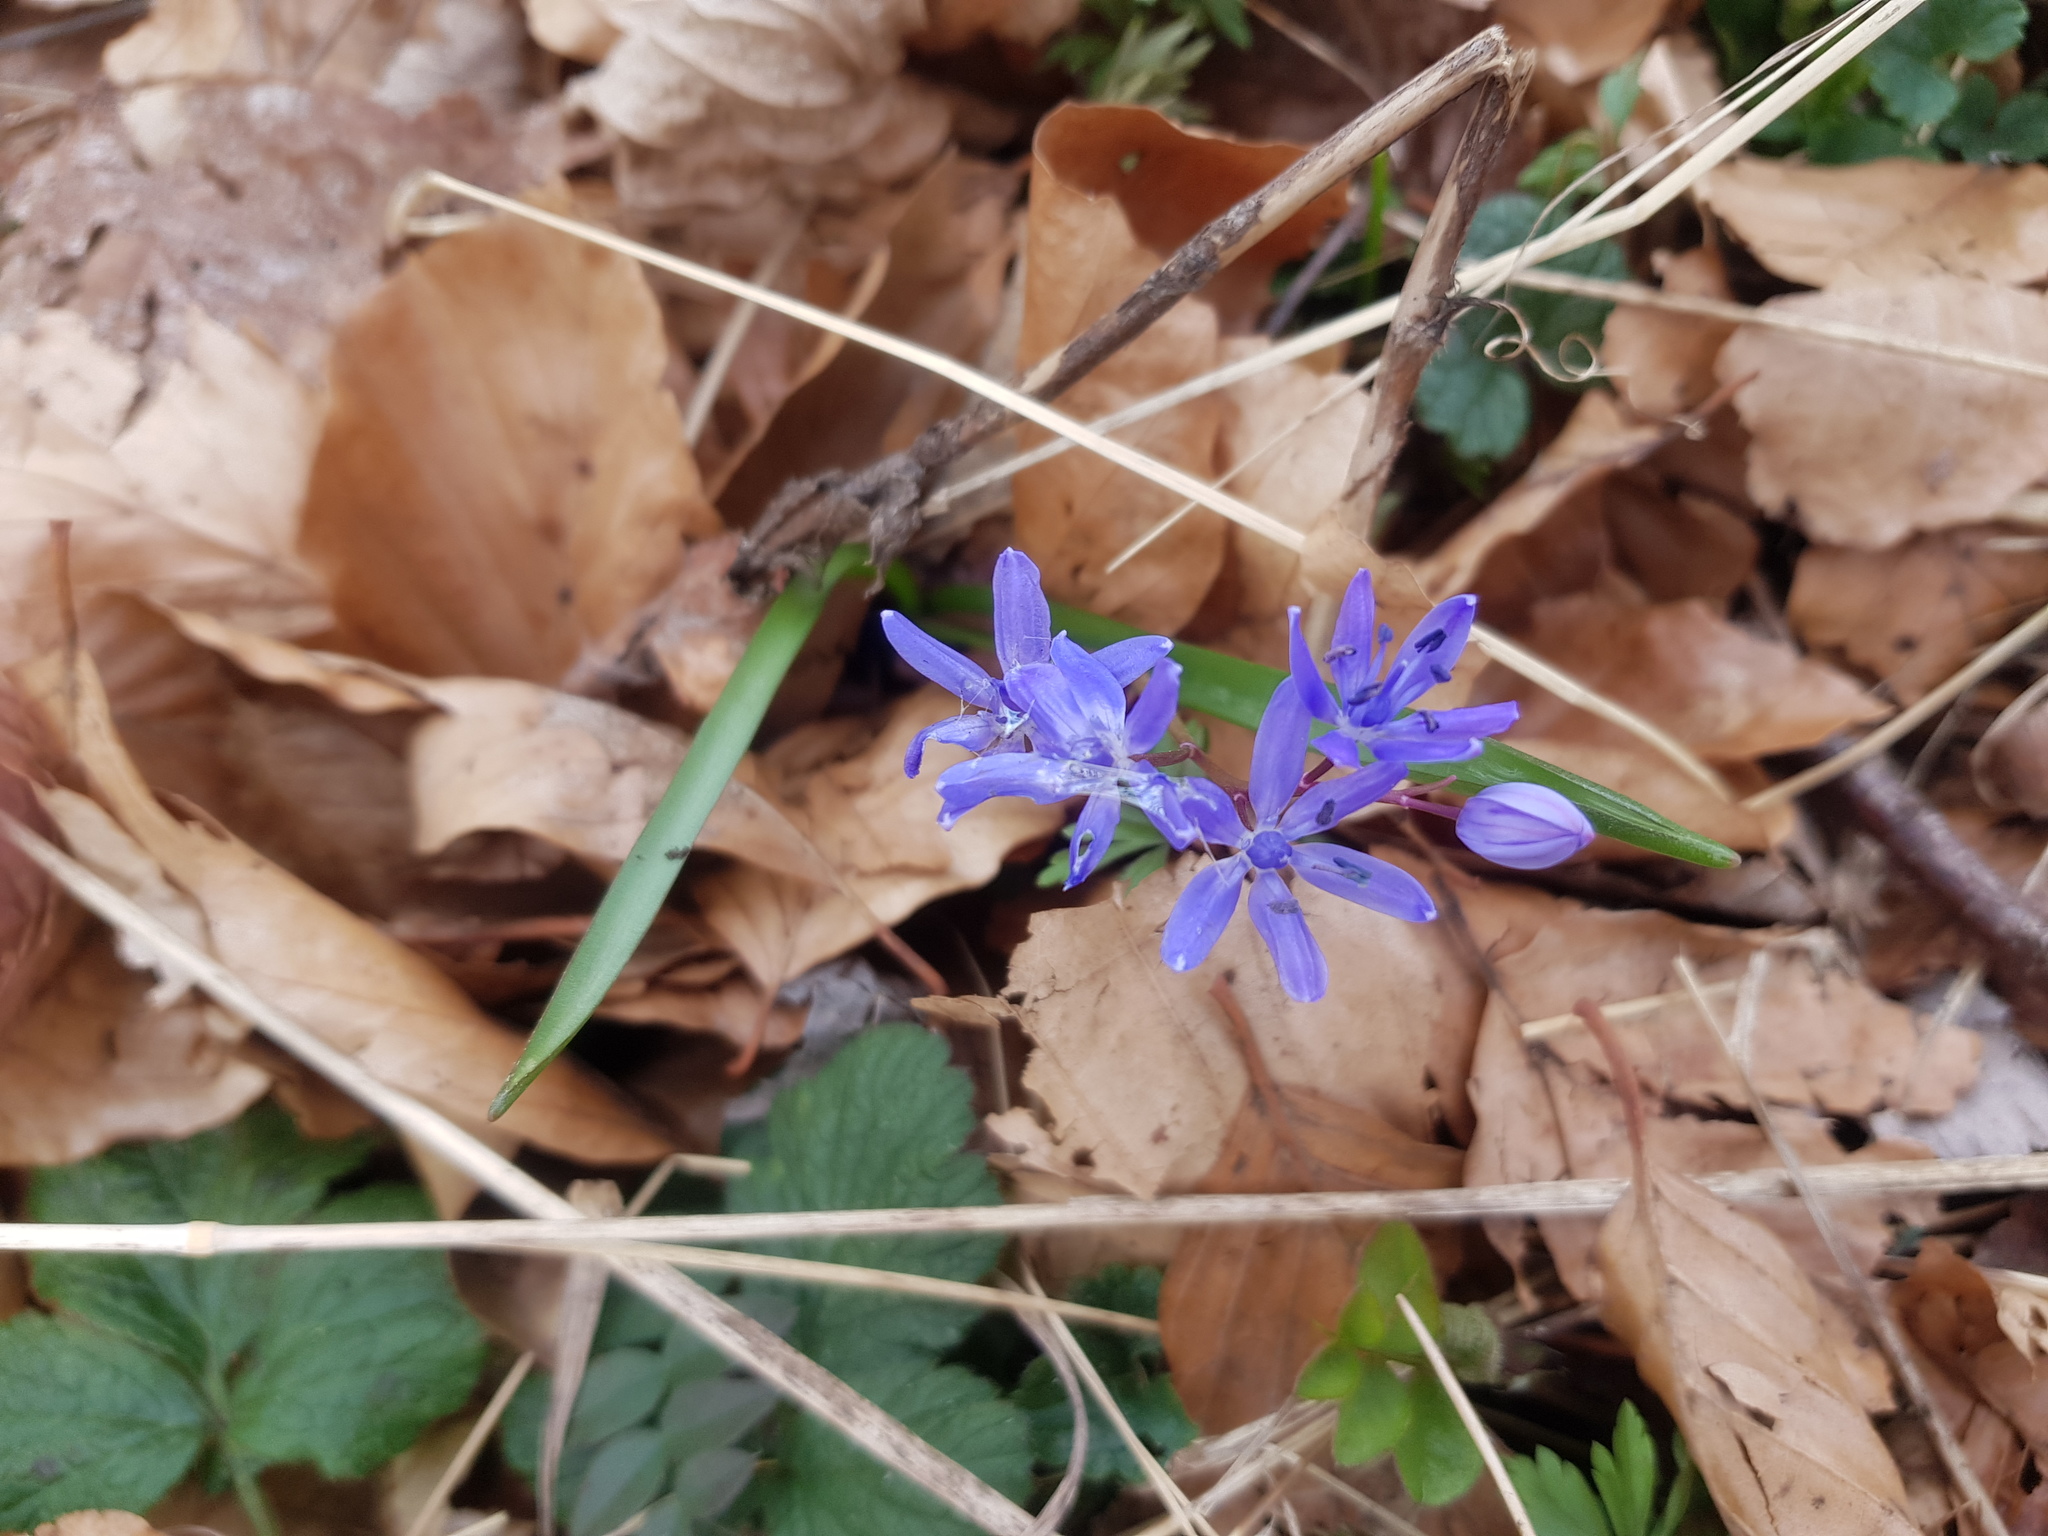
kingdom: Plantae
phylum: Tracheophyta
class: Liliopsida
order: Asparagales
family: Asparagaceae
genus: Scilla
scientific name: Scilla bifolia
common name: Alpine squill
